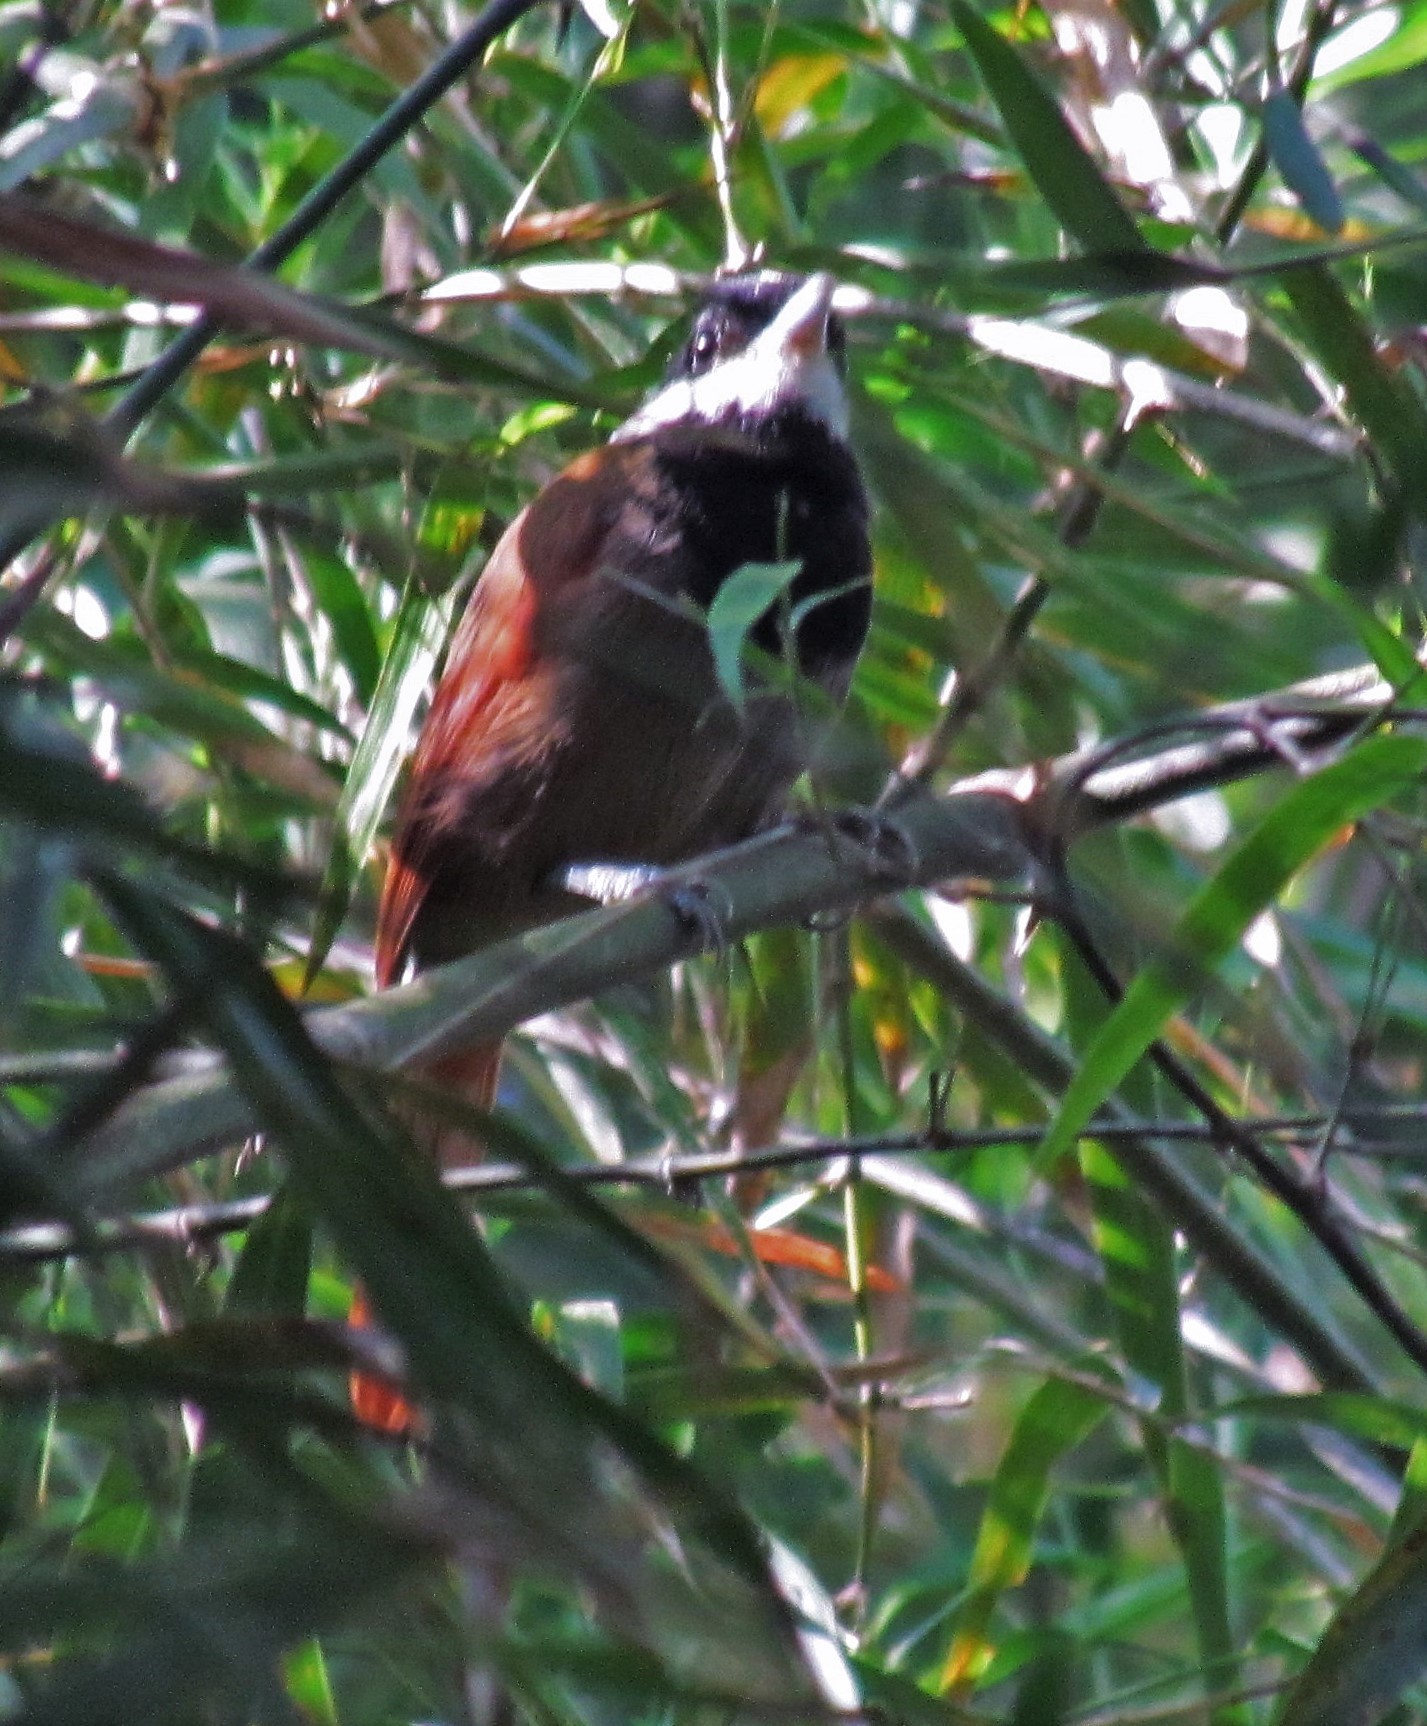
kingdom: Animalia
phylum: Chordata
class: Aves
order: Passeriformes
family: Thamnophilidae
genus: Biatas
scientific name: Biatas nigropectus
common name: White-bearded antshrike
